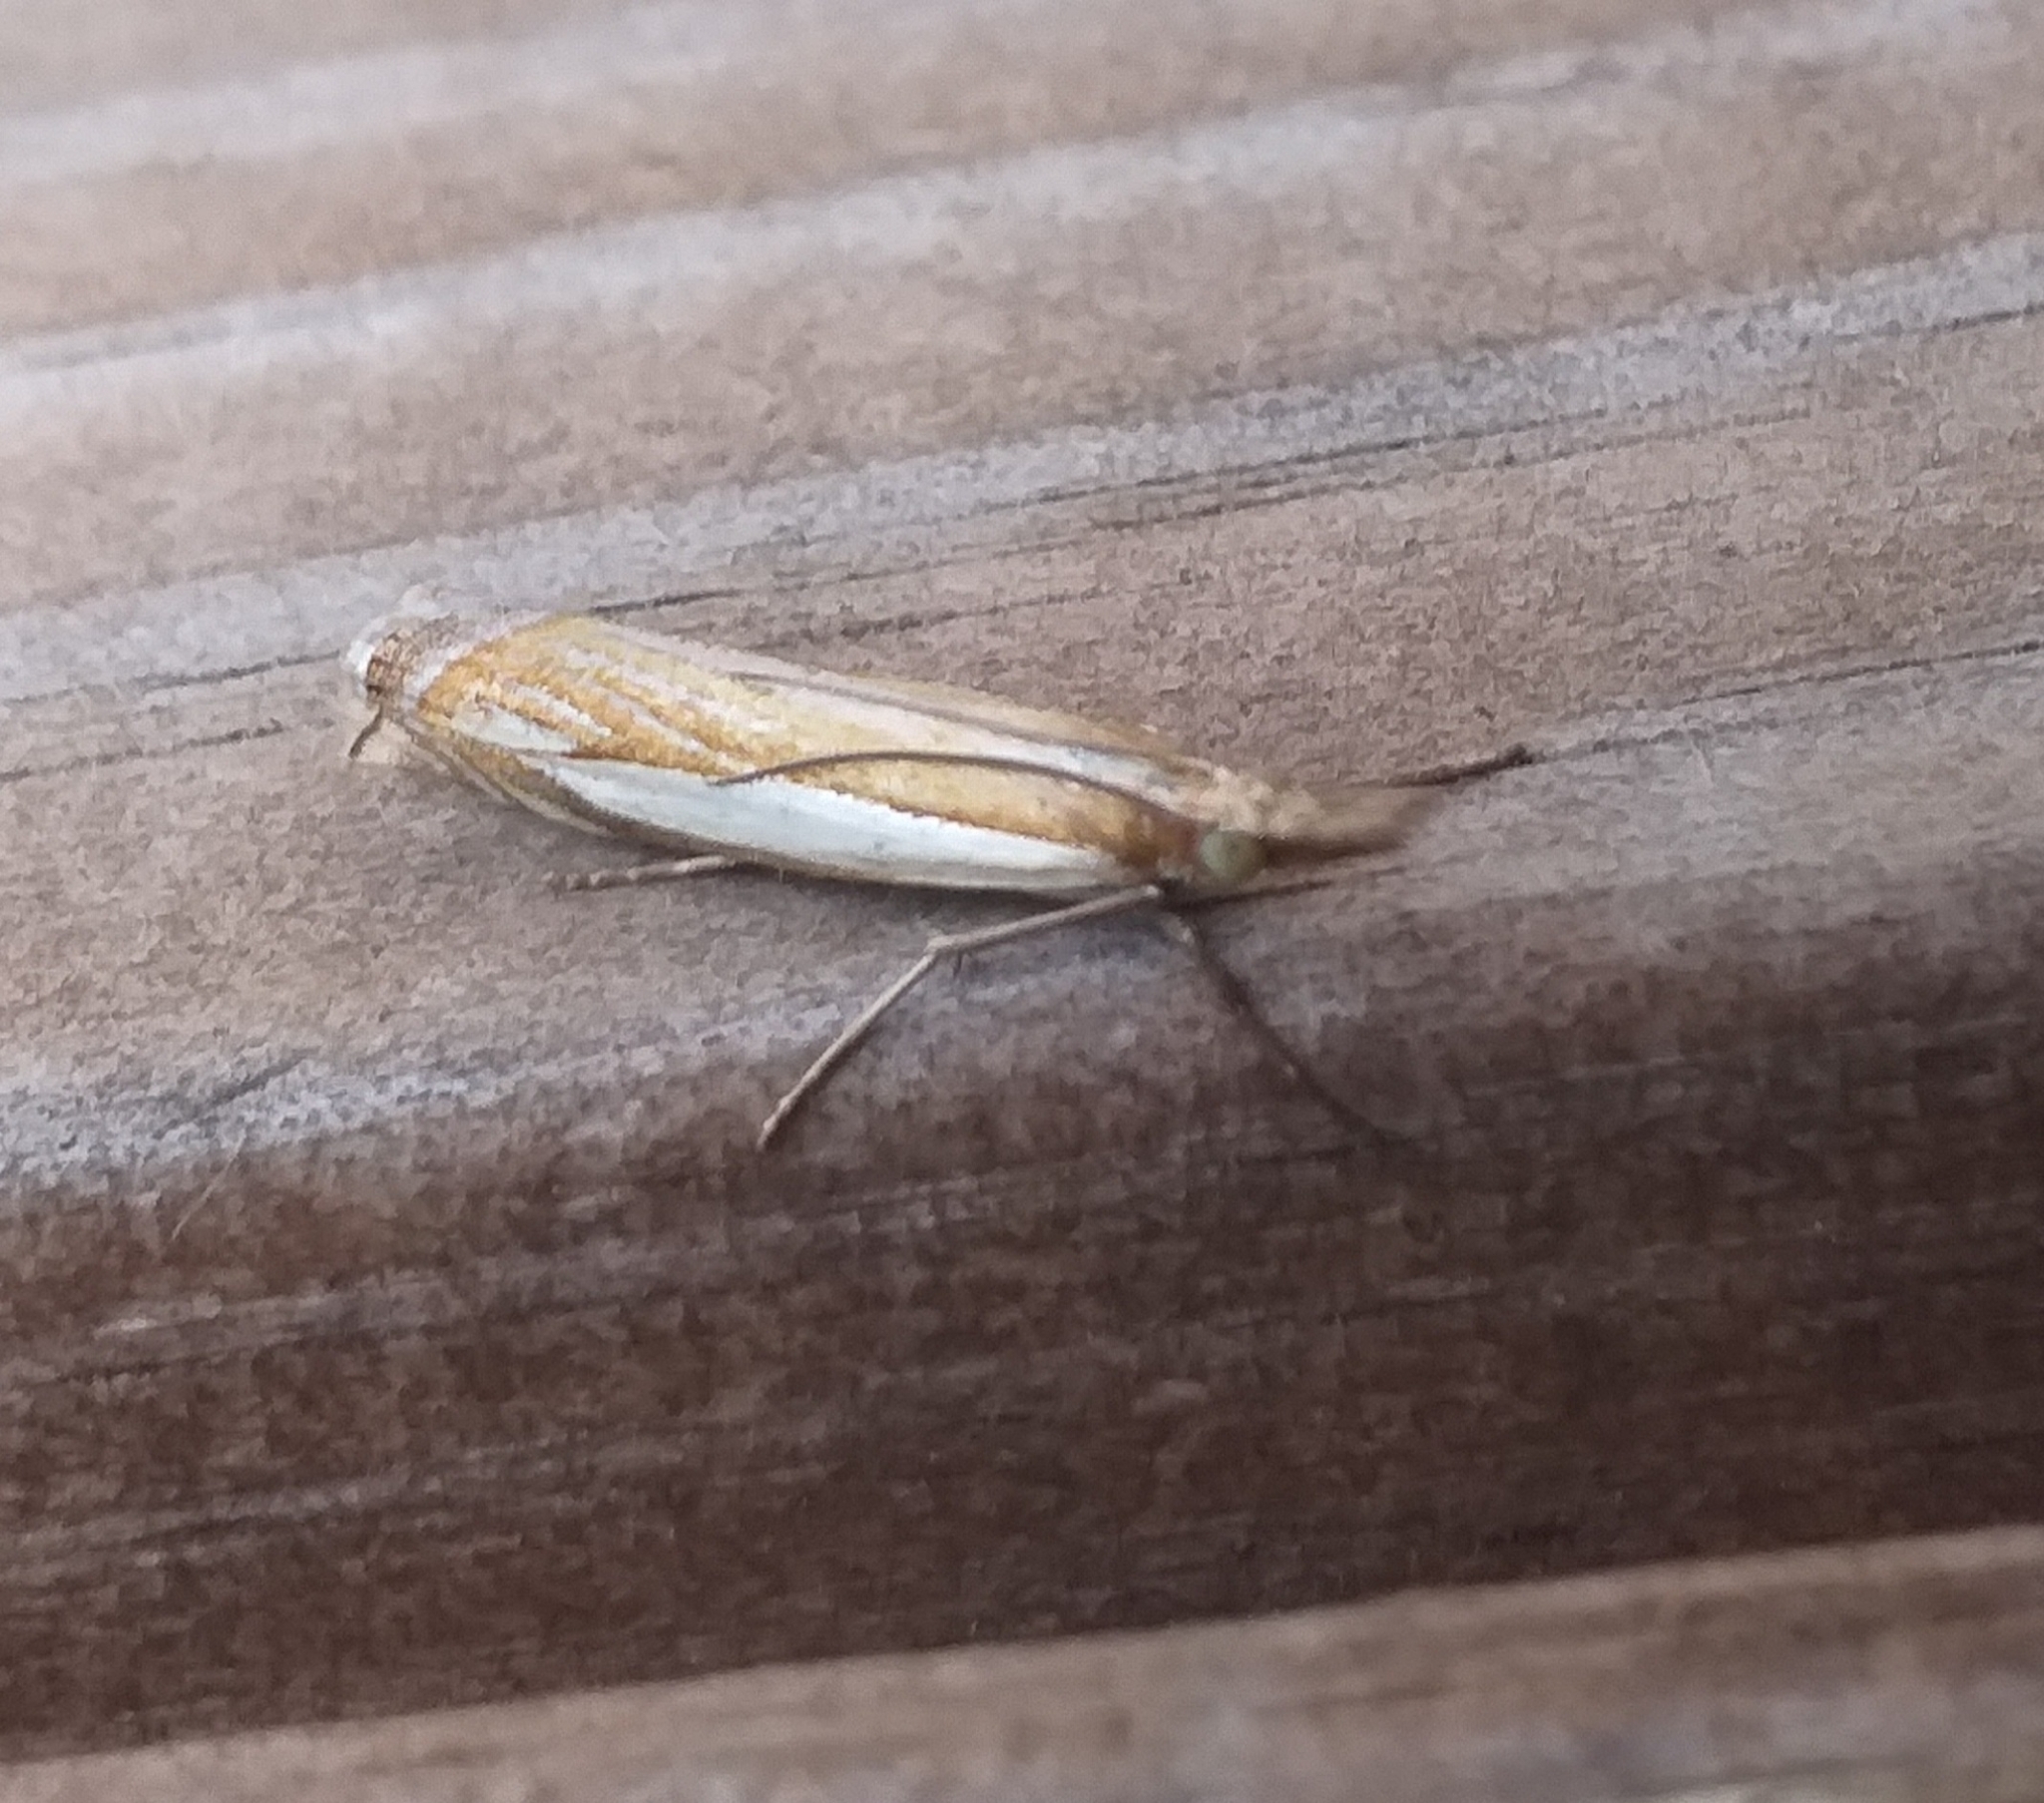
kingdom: Animalia
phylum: Arthropoda
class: Insecta
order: Lepidoptera
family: Crambidae
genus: Crambus
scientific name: Crambus pascuella
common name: Inlaid grass-veneer
